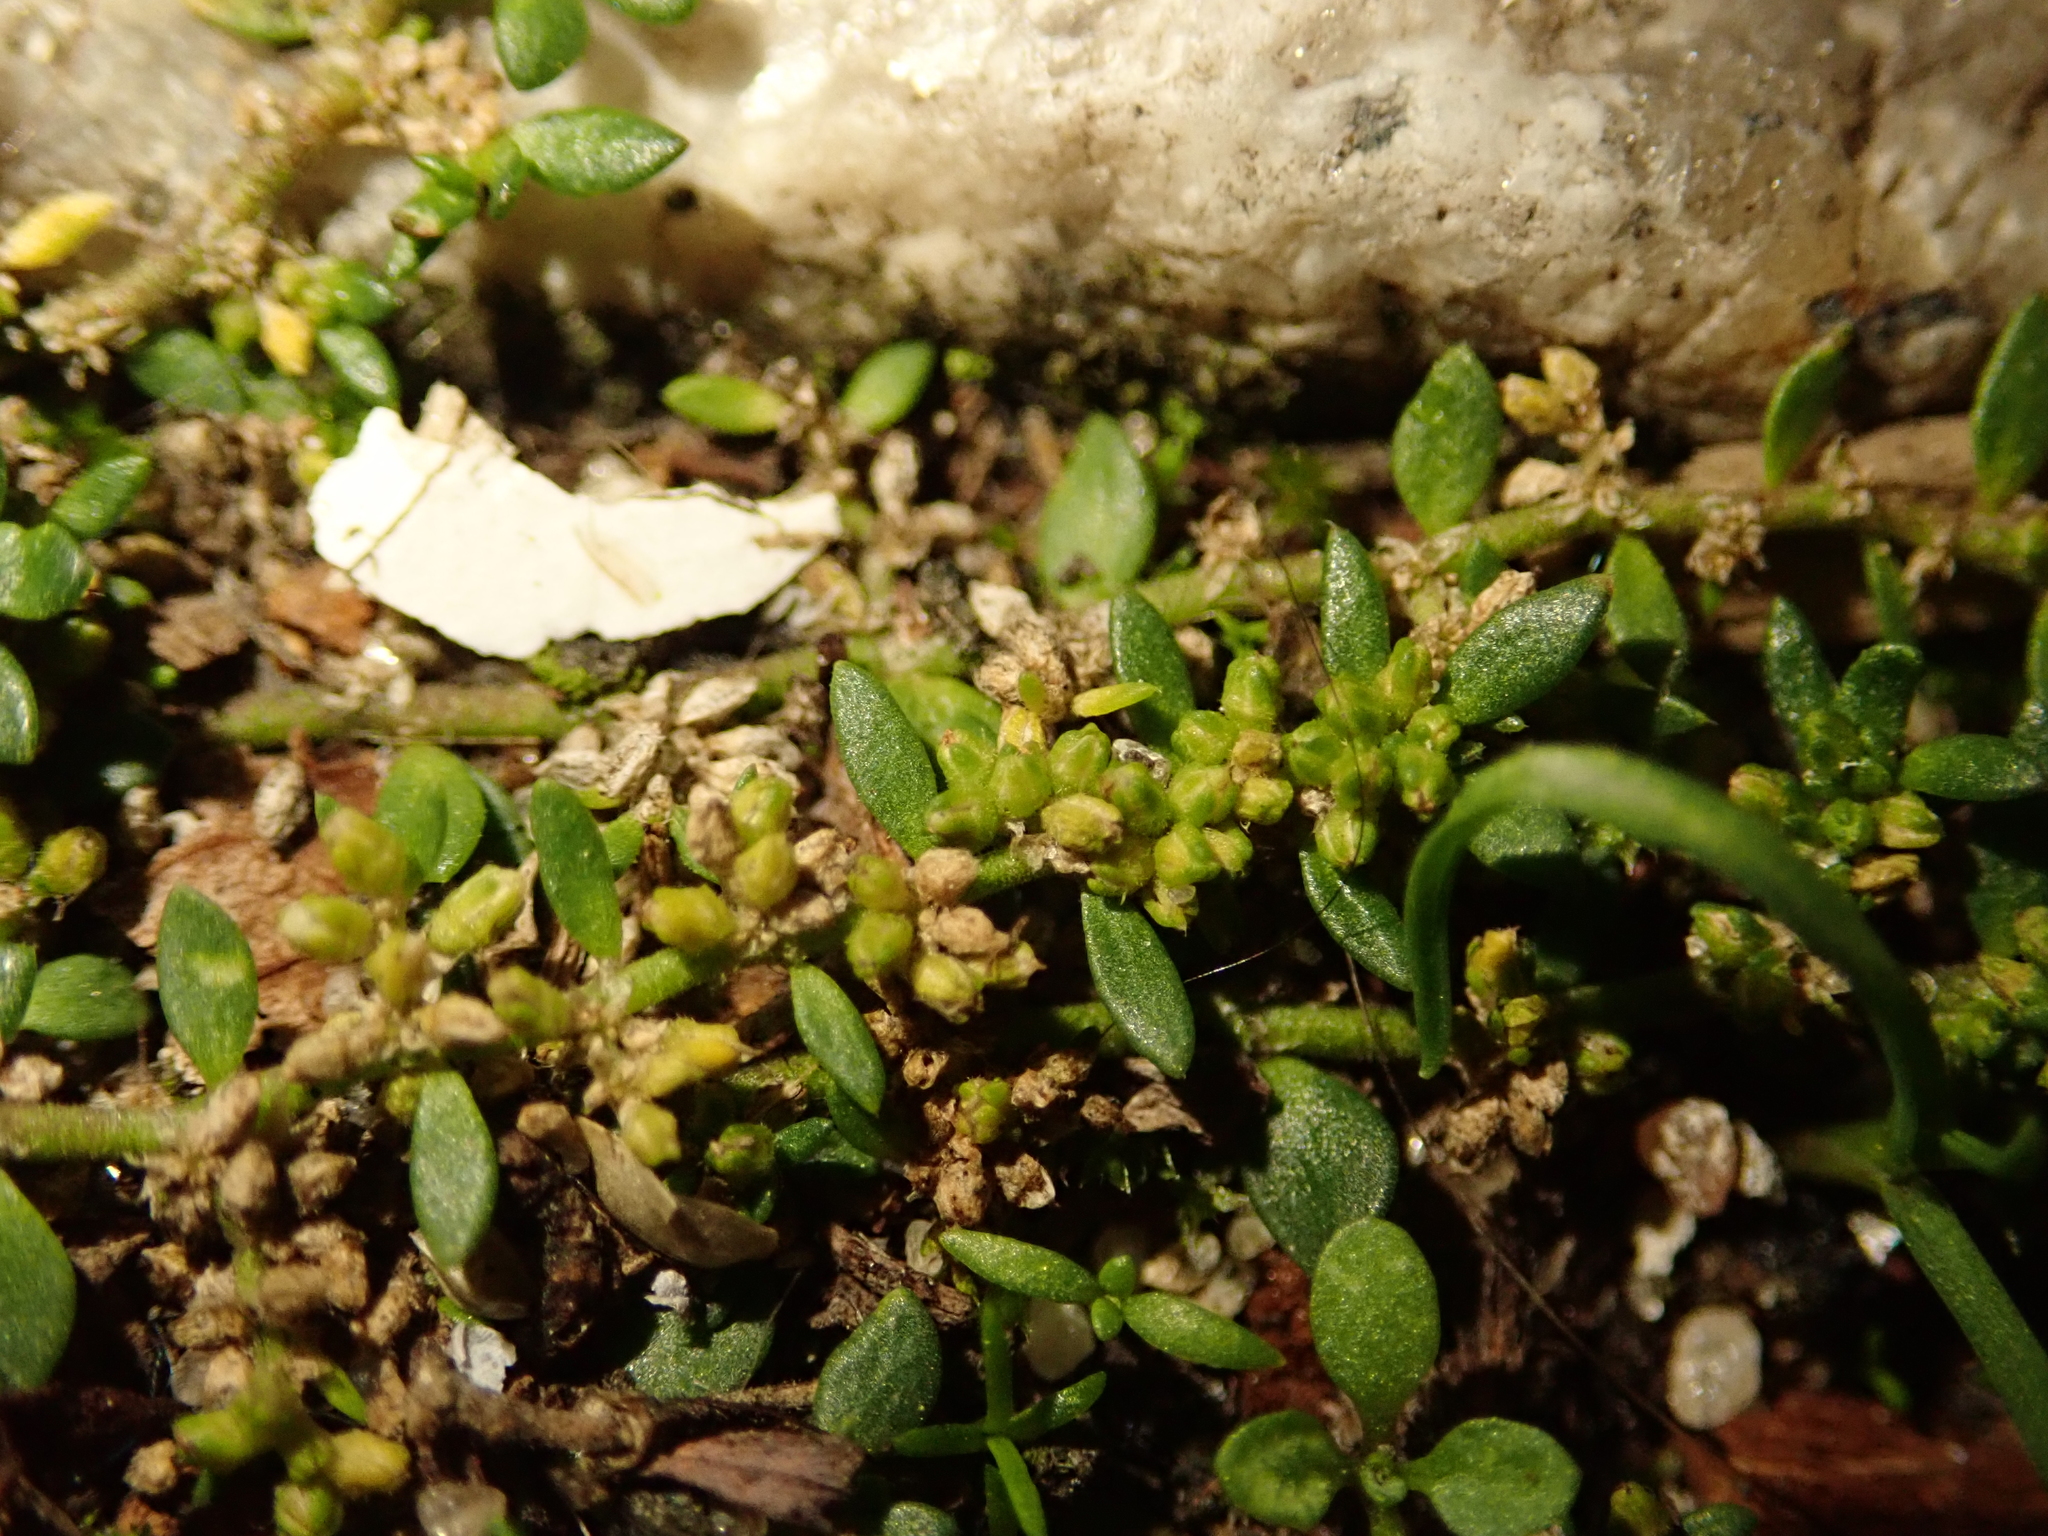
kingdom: Plantae
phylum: Tracheophyta
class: Magnoliopsida
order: Caryophyllales
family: Caryophyllaceae
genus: Herniaria
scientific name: Herniaria glabra
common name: Smooth rupturewort
